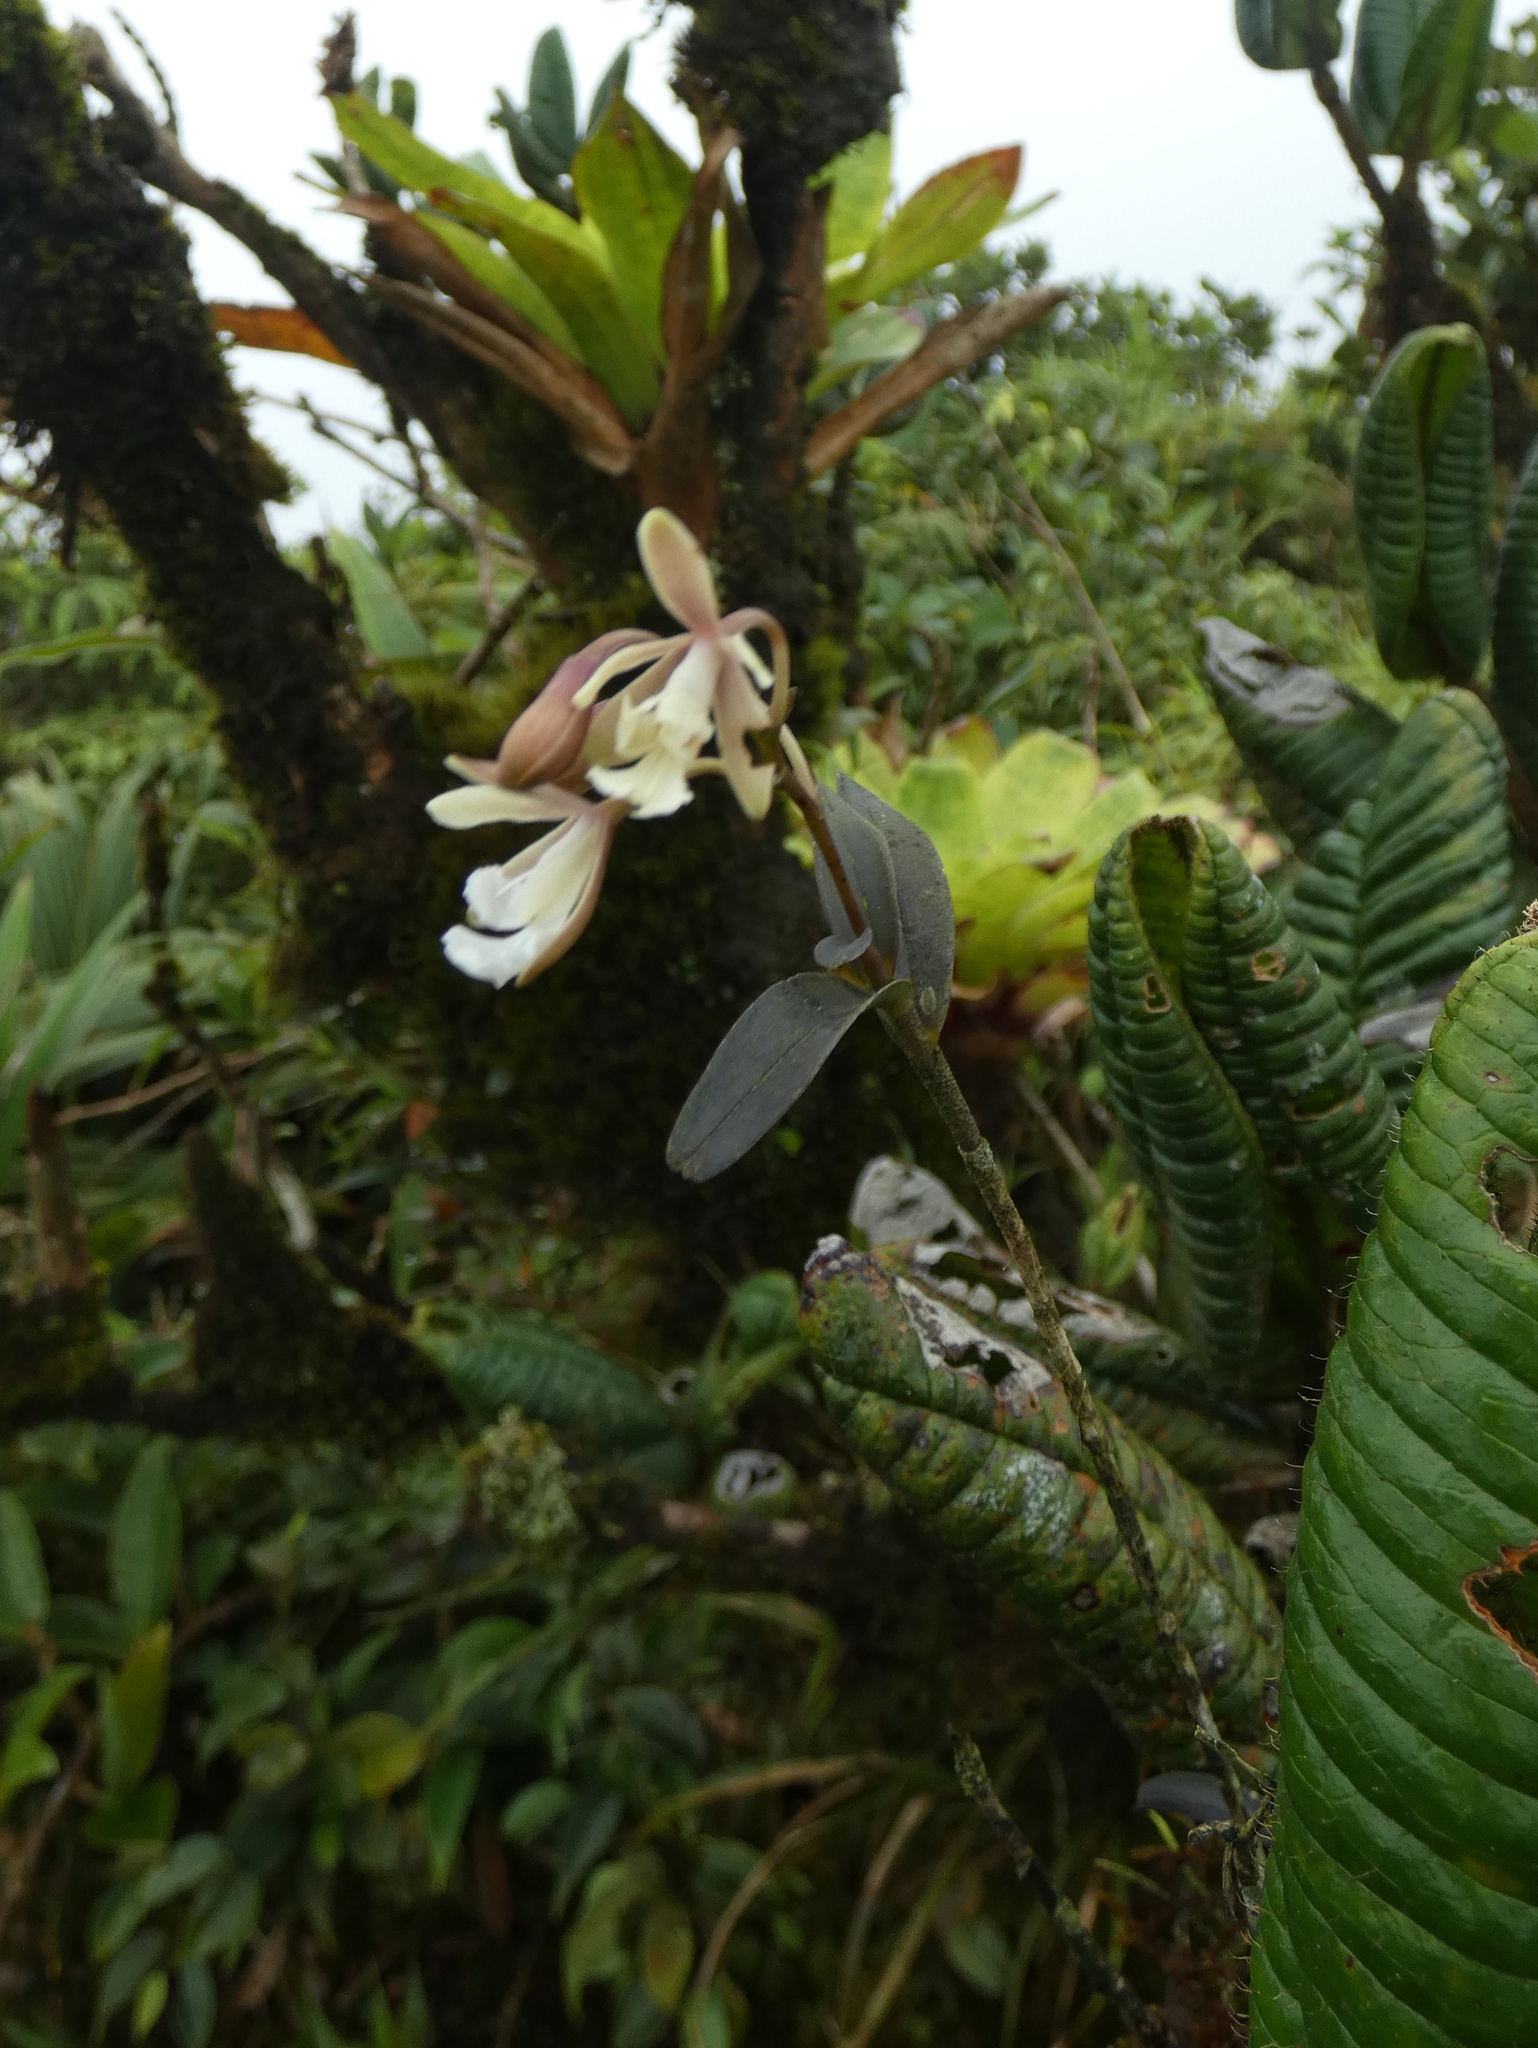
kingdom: Plantae
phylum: Tracheophyta
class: Liliopsida
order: Asparagales
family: Orchidaceae
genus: Epidendrum
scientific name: Epidendrum pajitense
